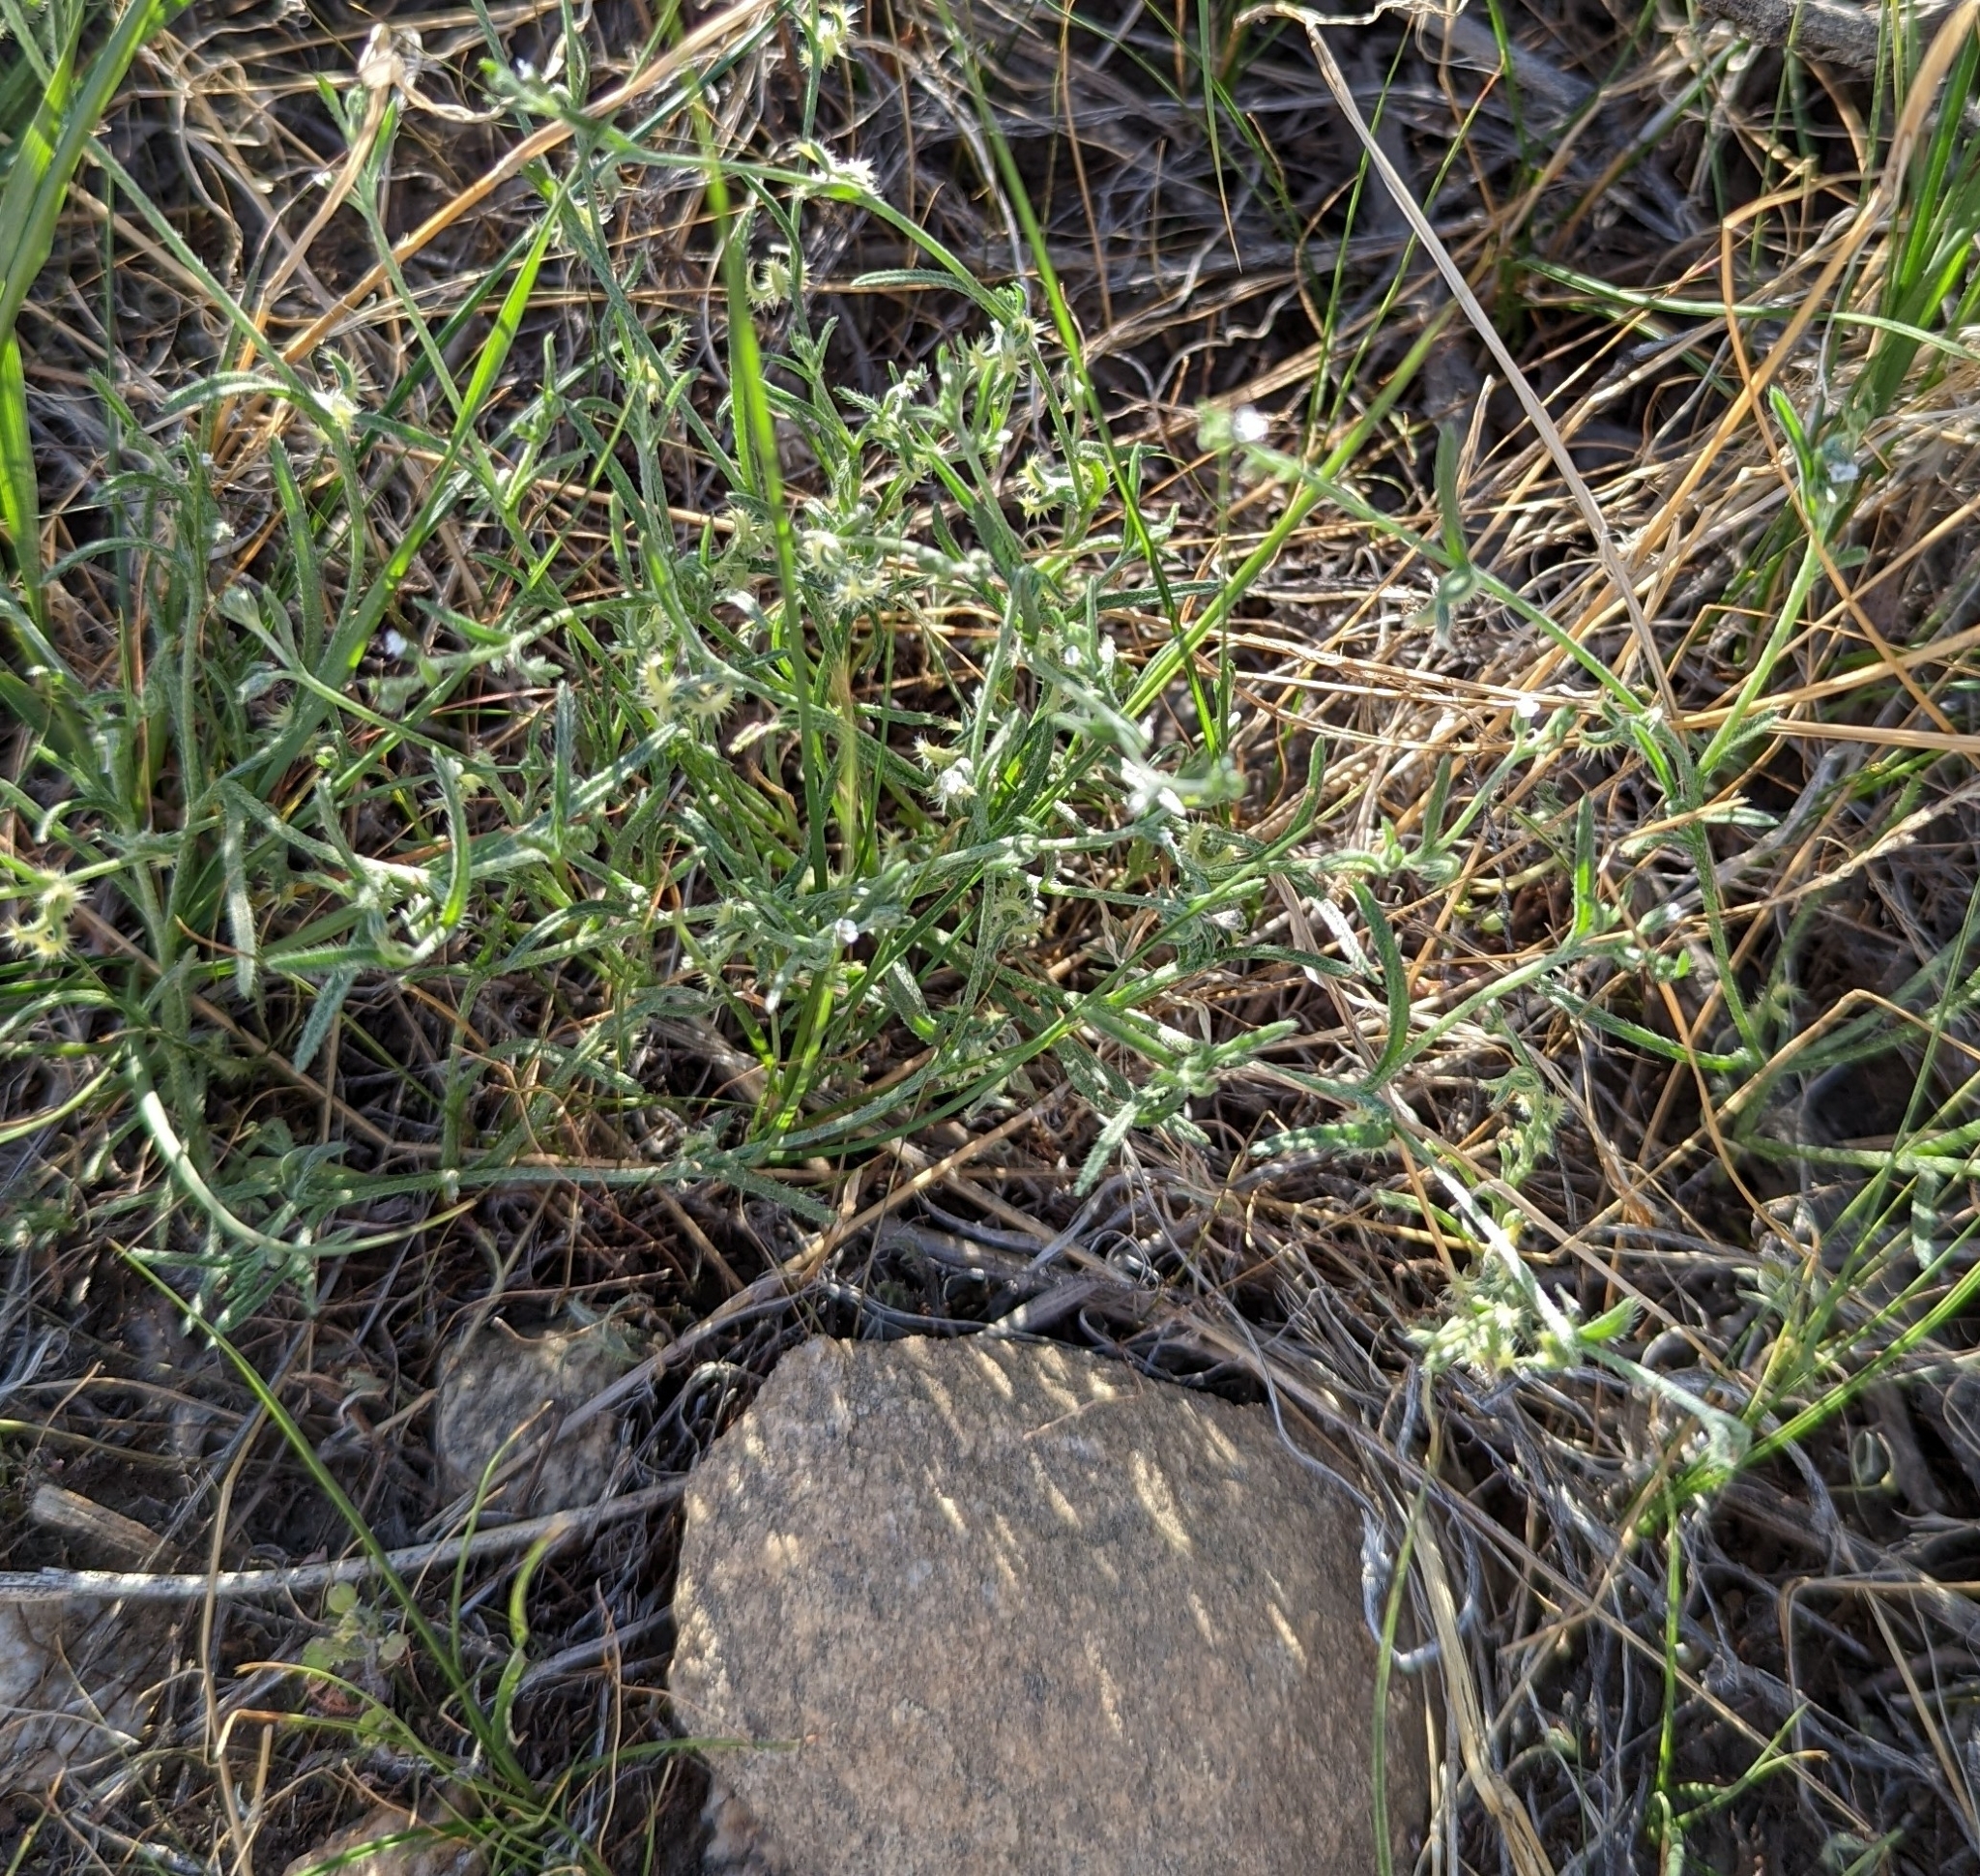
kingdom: Plantae
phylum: Tracheophyta
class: Magnoliopsida
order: Boraginales
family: Boraginaceae
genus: Pectocarya
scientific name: Pectocarya recurvata
